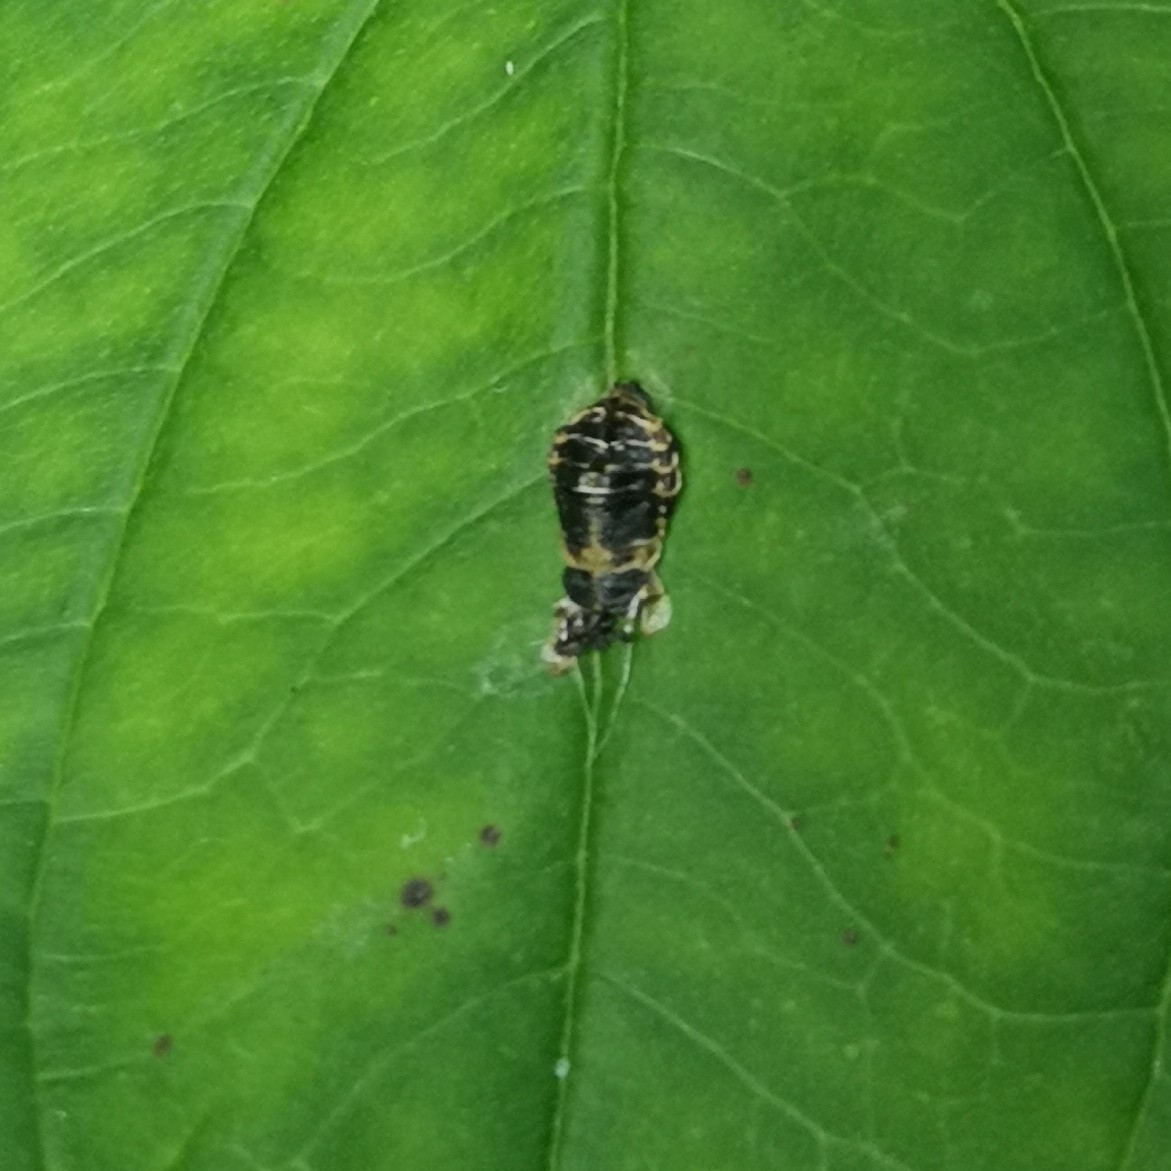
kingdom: Animalia
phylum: Arthropoda
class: Insecta
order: Coleoptera
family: Coccinellidae
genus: Harmonia
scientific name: Harmonia axyridis
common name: Harlequin ladybird
